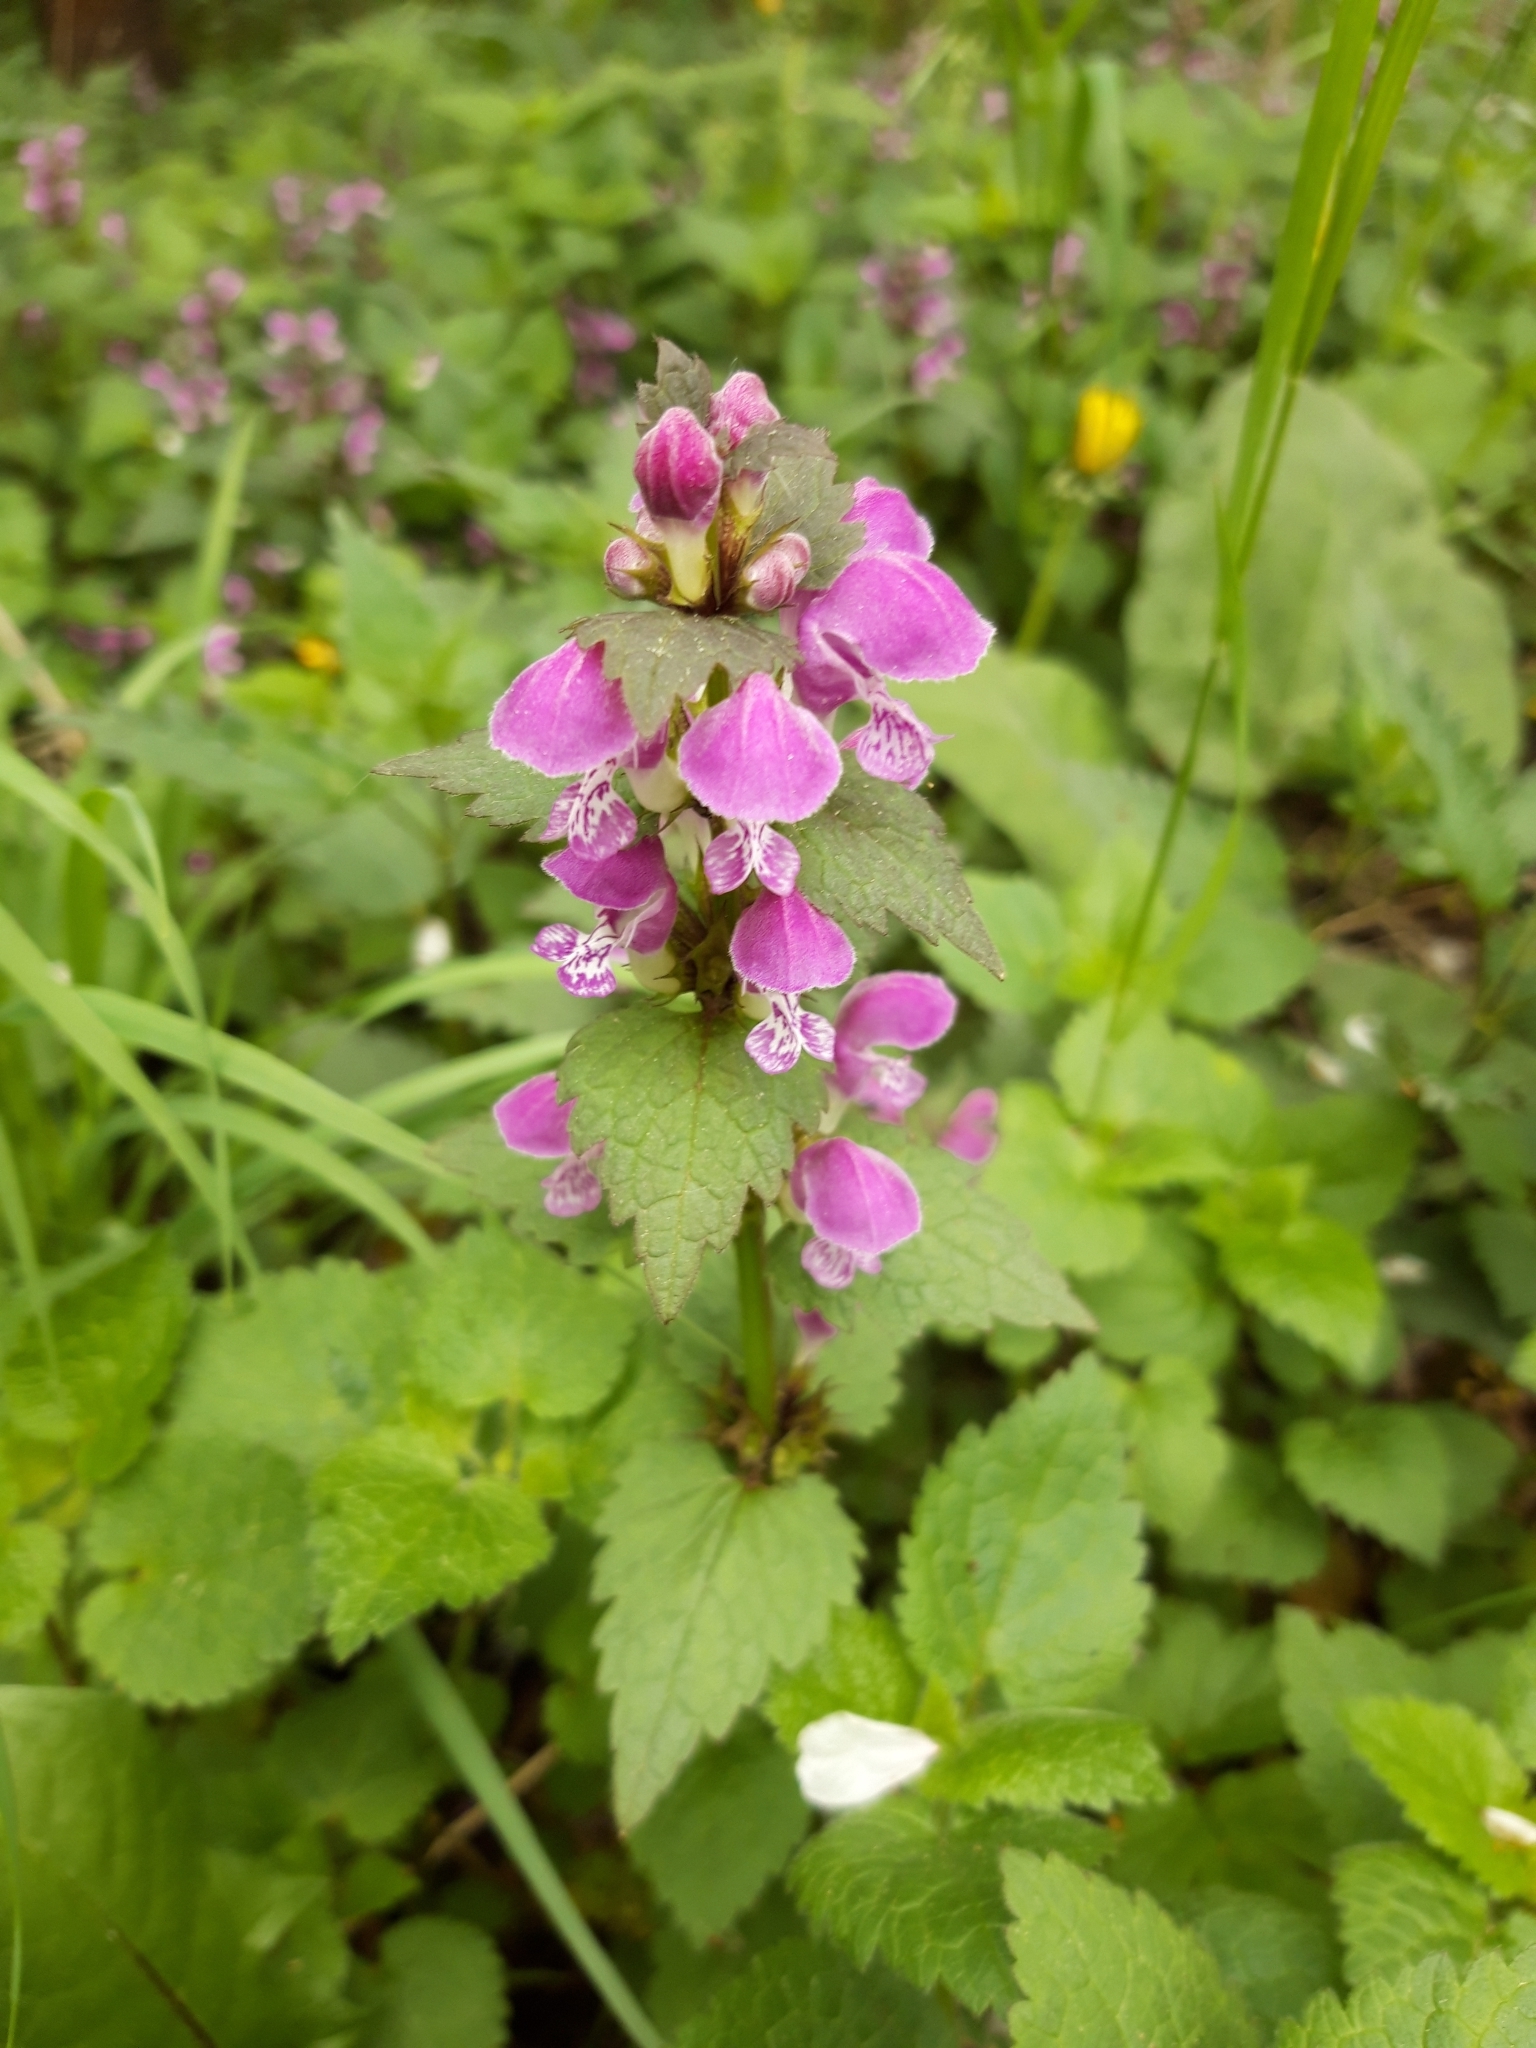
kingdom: Plantae
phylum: Tracheophyta
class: Magnoliopsida
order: Lamiales
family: Lamiaceae
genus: Lamium
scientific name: Lamium maculatum
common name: Spotted dead-nettle
